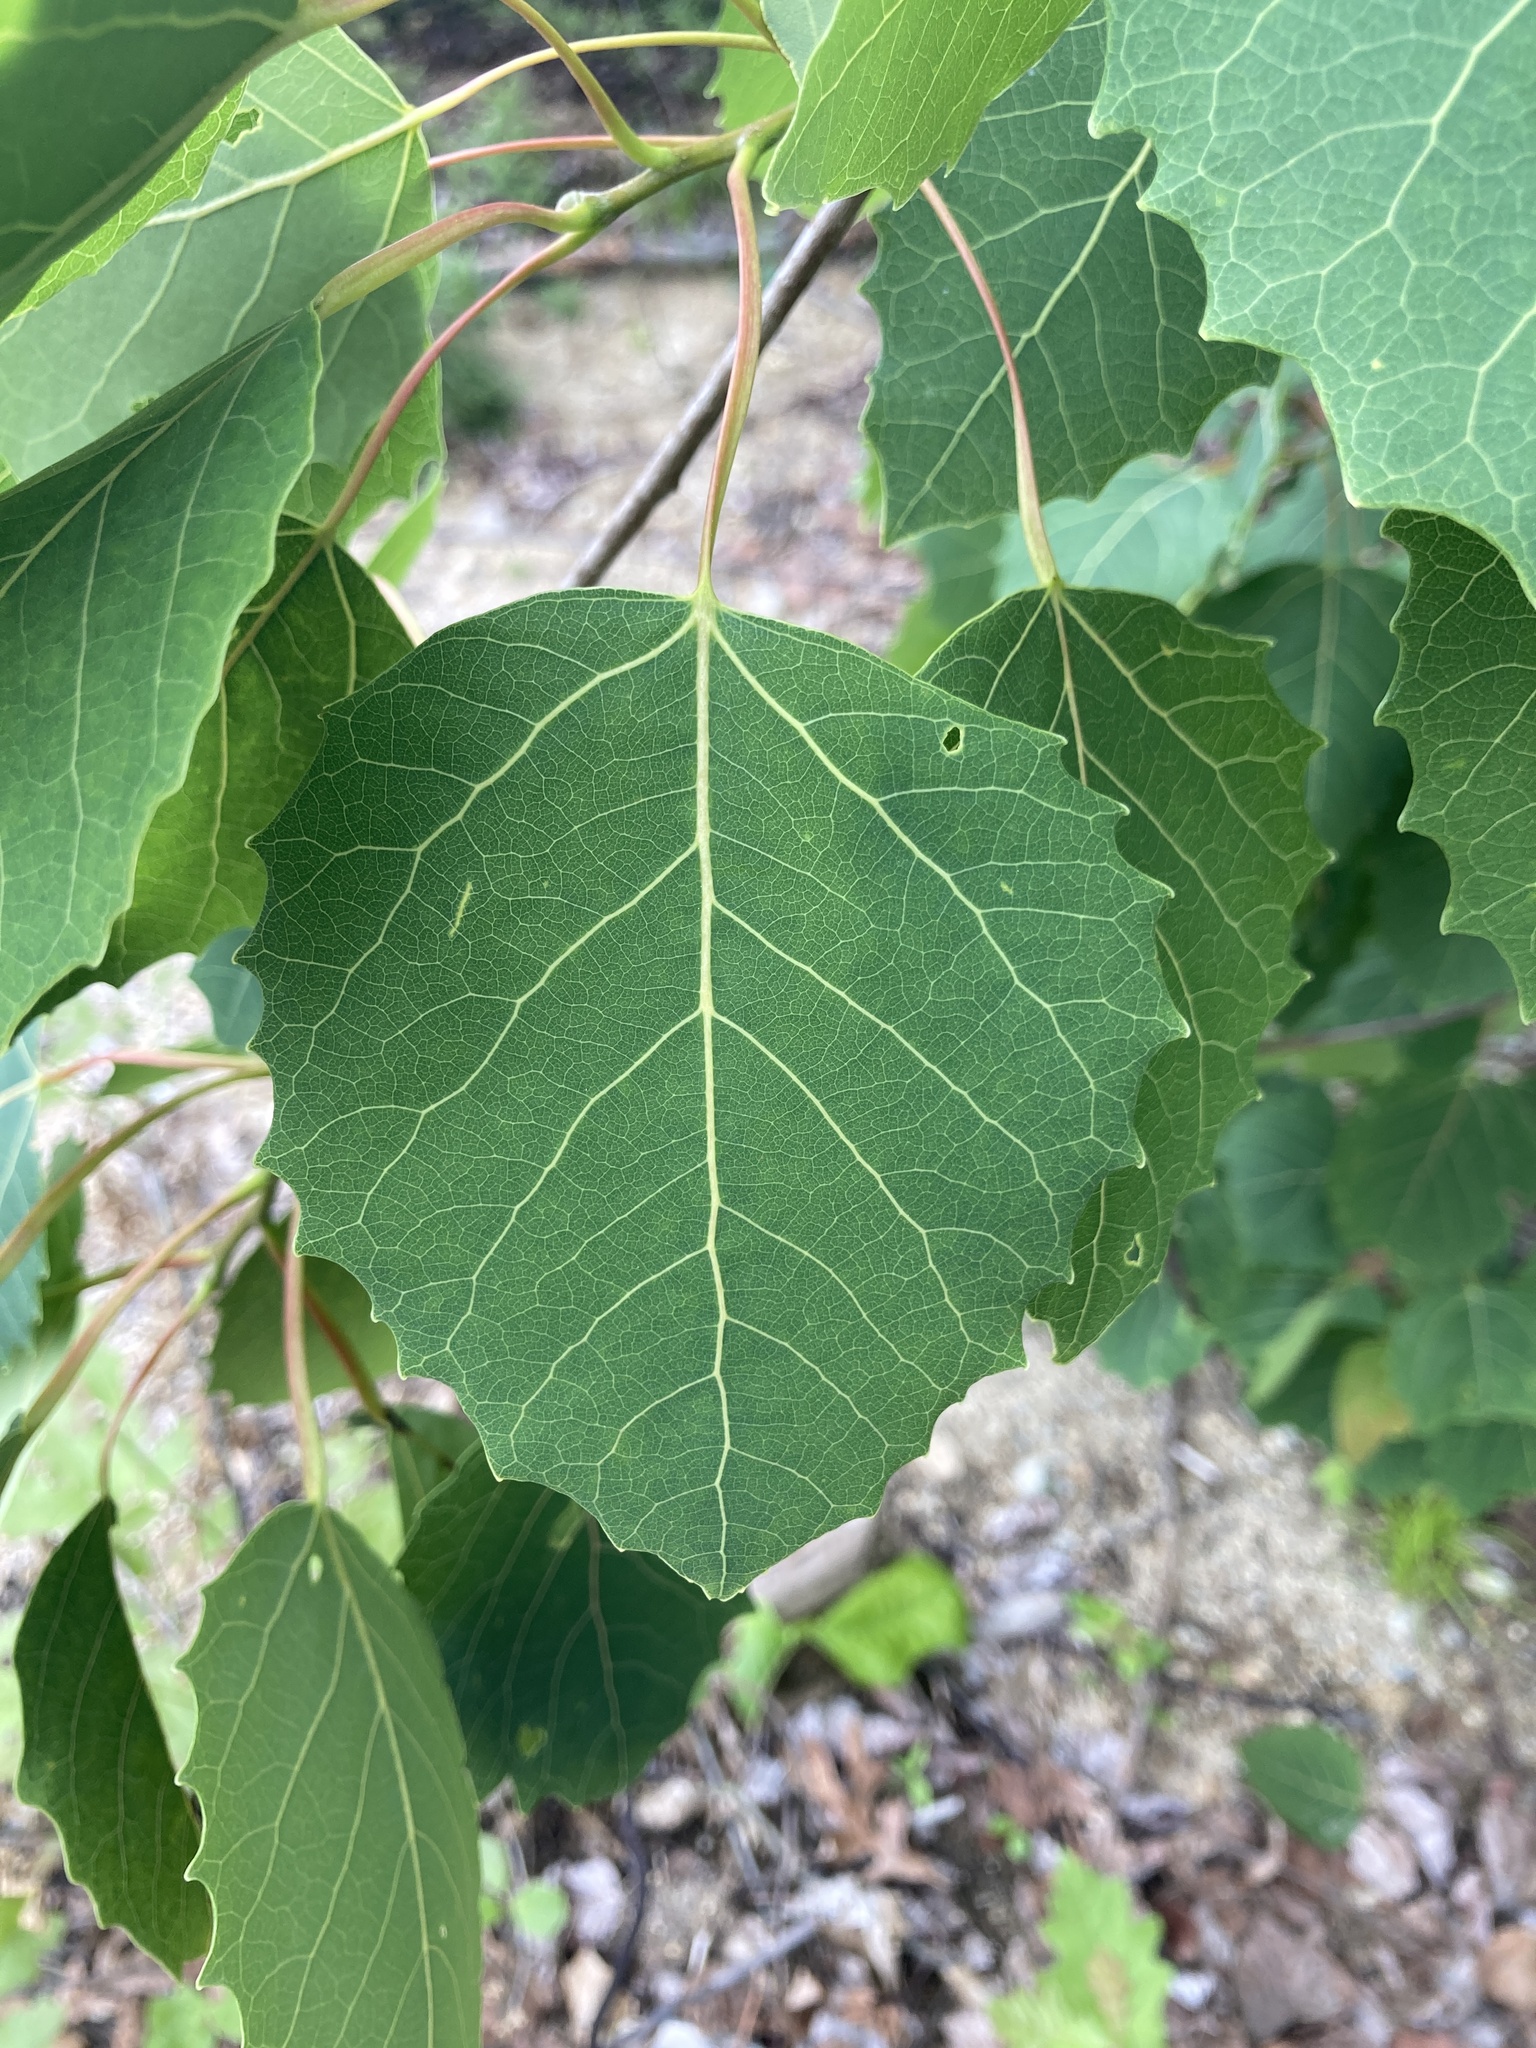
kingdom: Plantae
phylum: Tracheophyta
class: Magnoliopsida
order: Malpighiales
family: Salicaceae
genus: Populus
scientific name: Populus grandidentata
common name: Bigtooth aspen
